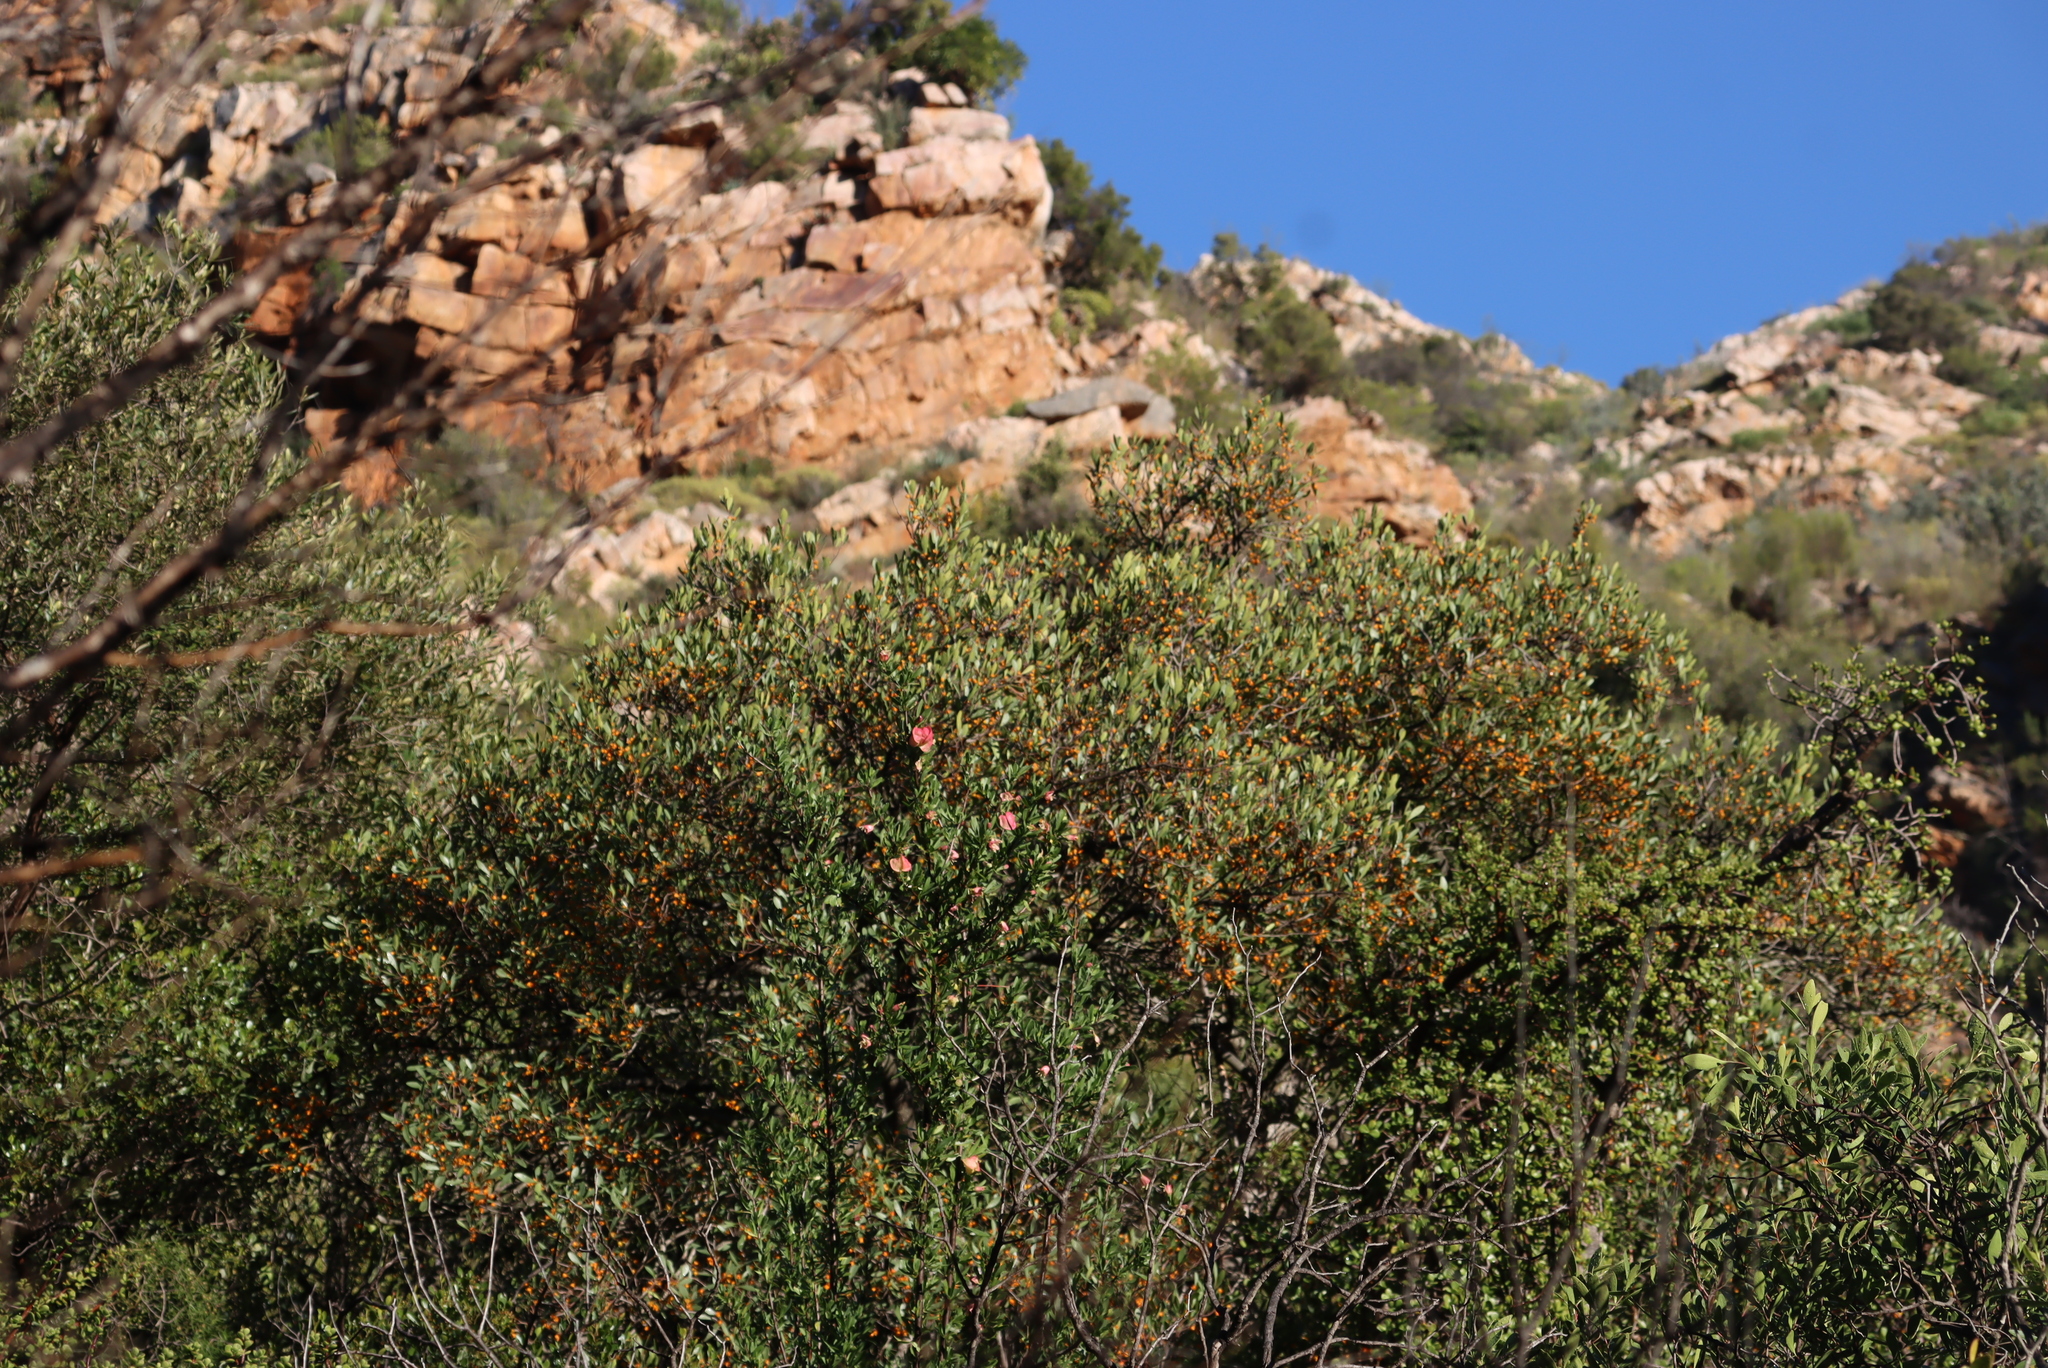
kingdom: Plantae
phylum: Tracheophyta
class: Magnoliopsida
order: Celastrales
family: Celastraceae
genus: Pterocelastrus
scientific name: Pterocelastrus tricuspidatus
